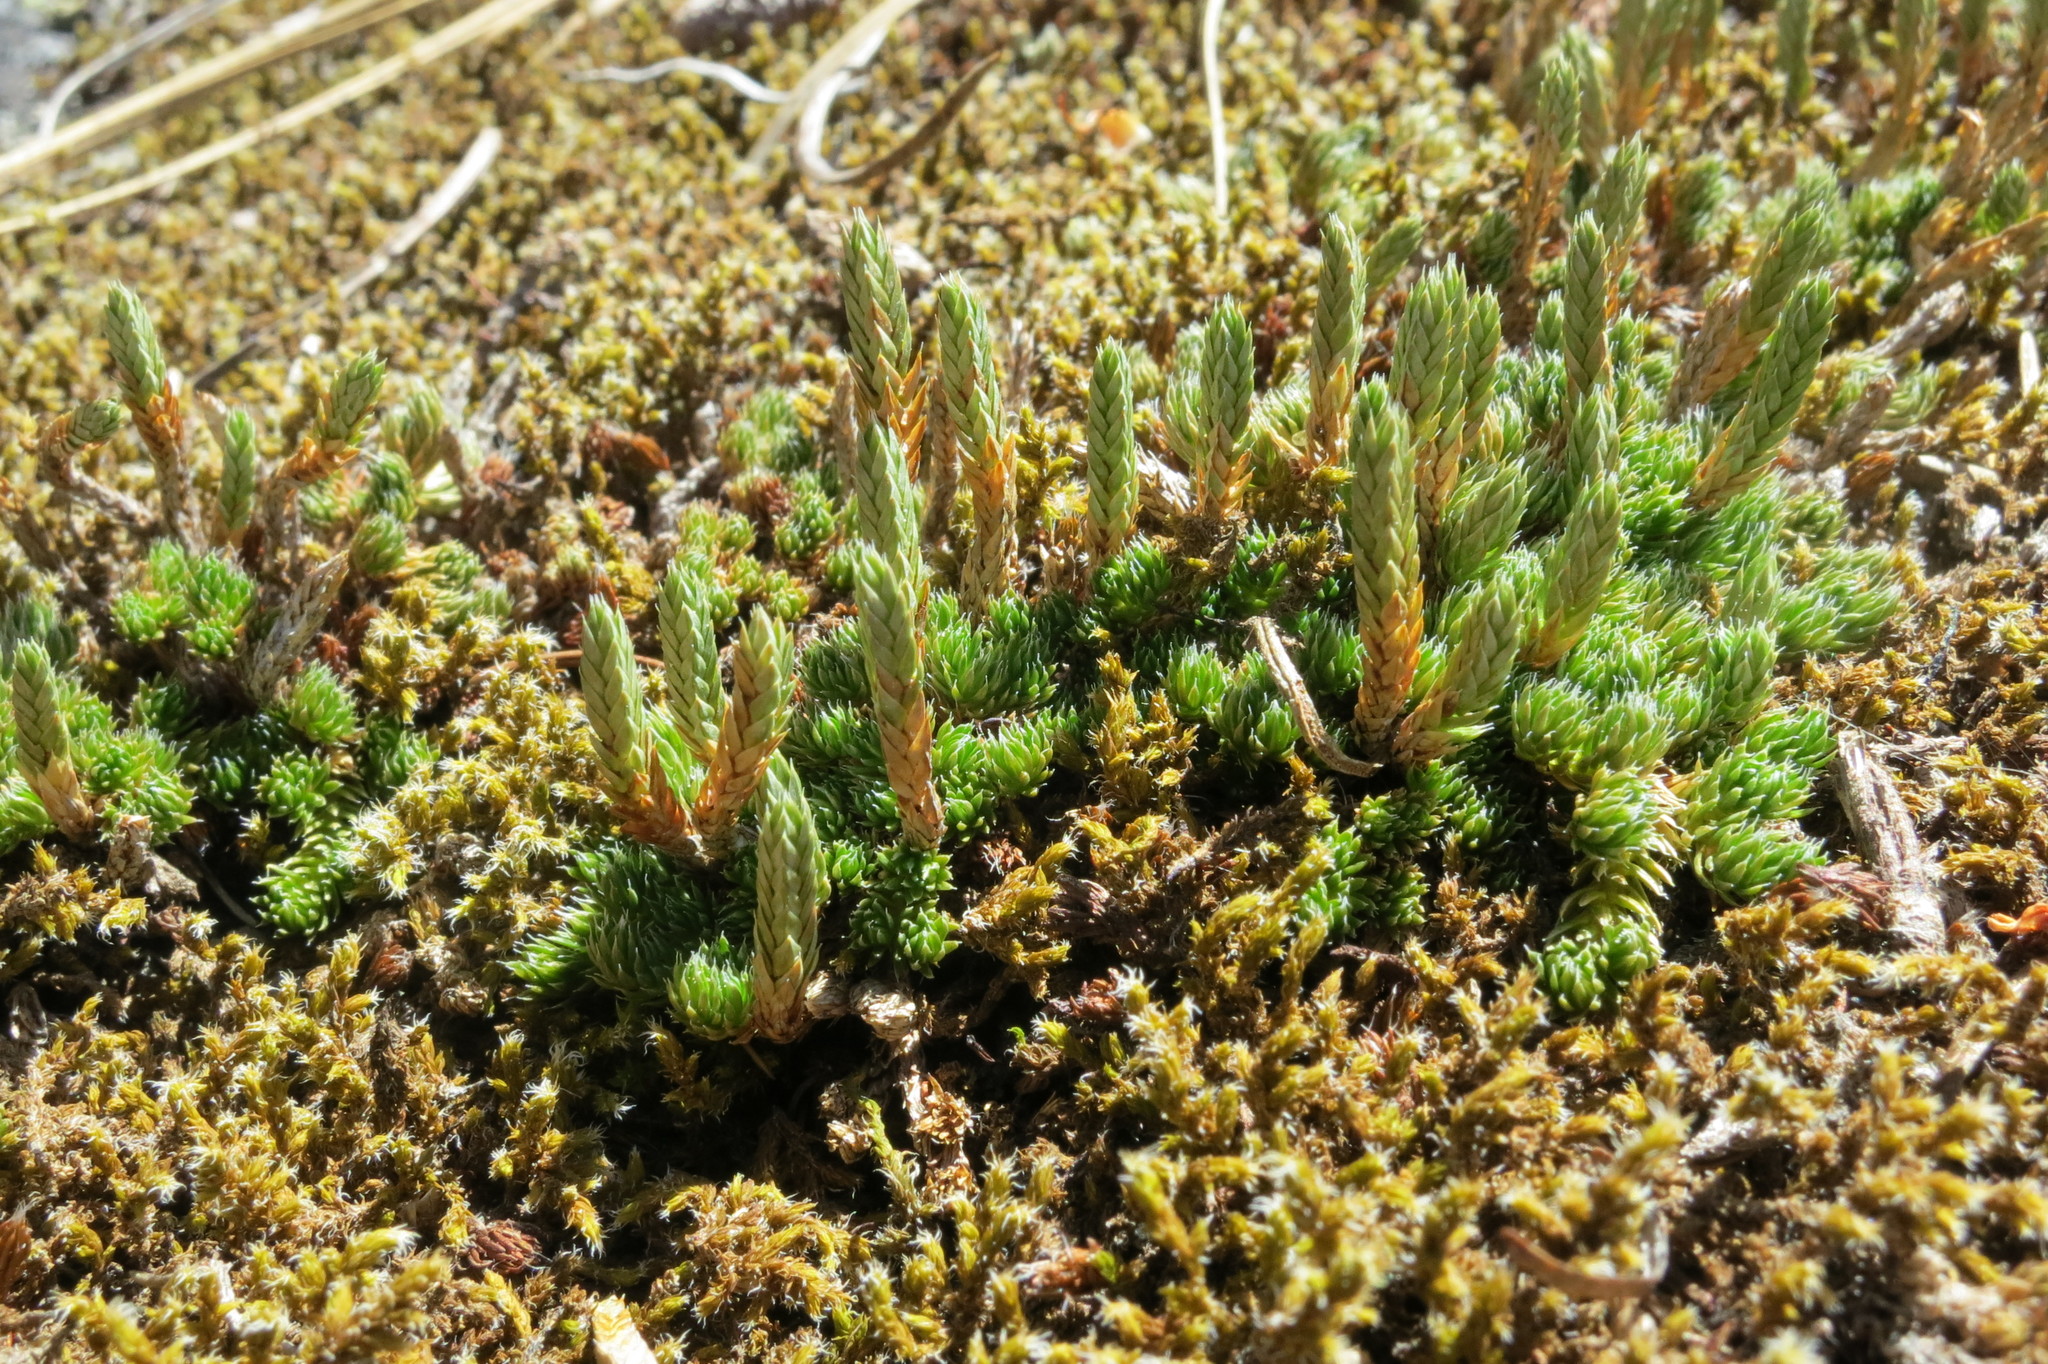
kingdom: Plantae
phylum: Tracheophyta
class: Lycopodiopsida
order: Selaginellales
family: Selaginellaceae
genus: Selaginella
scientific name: Selaginella watsonii
